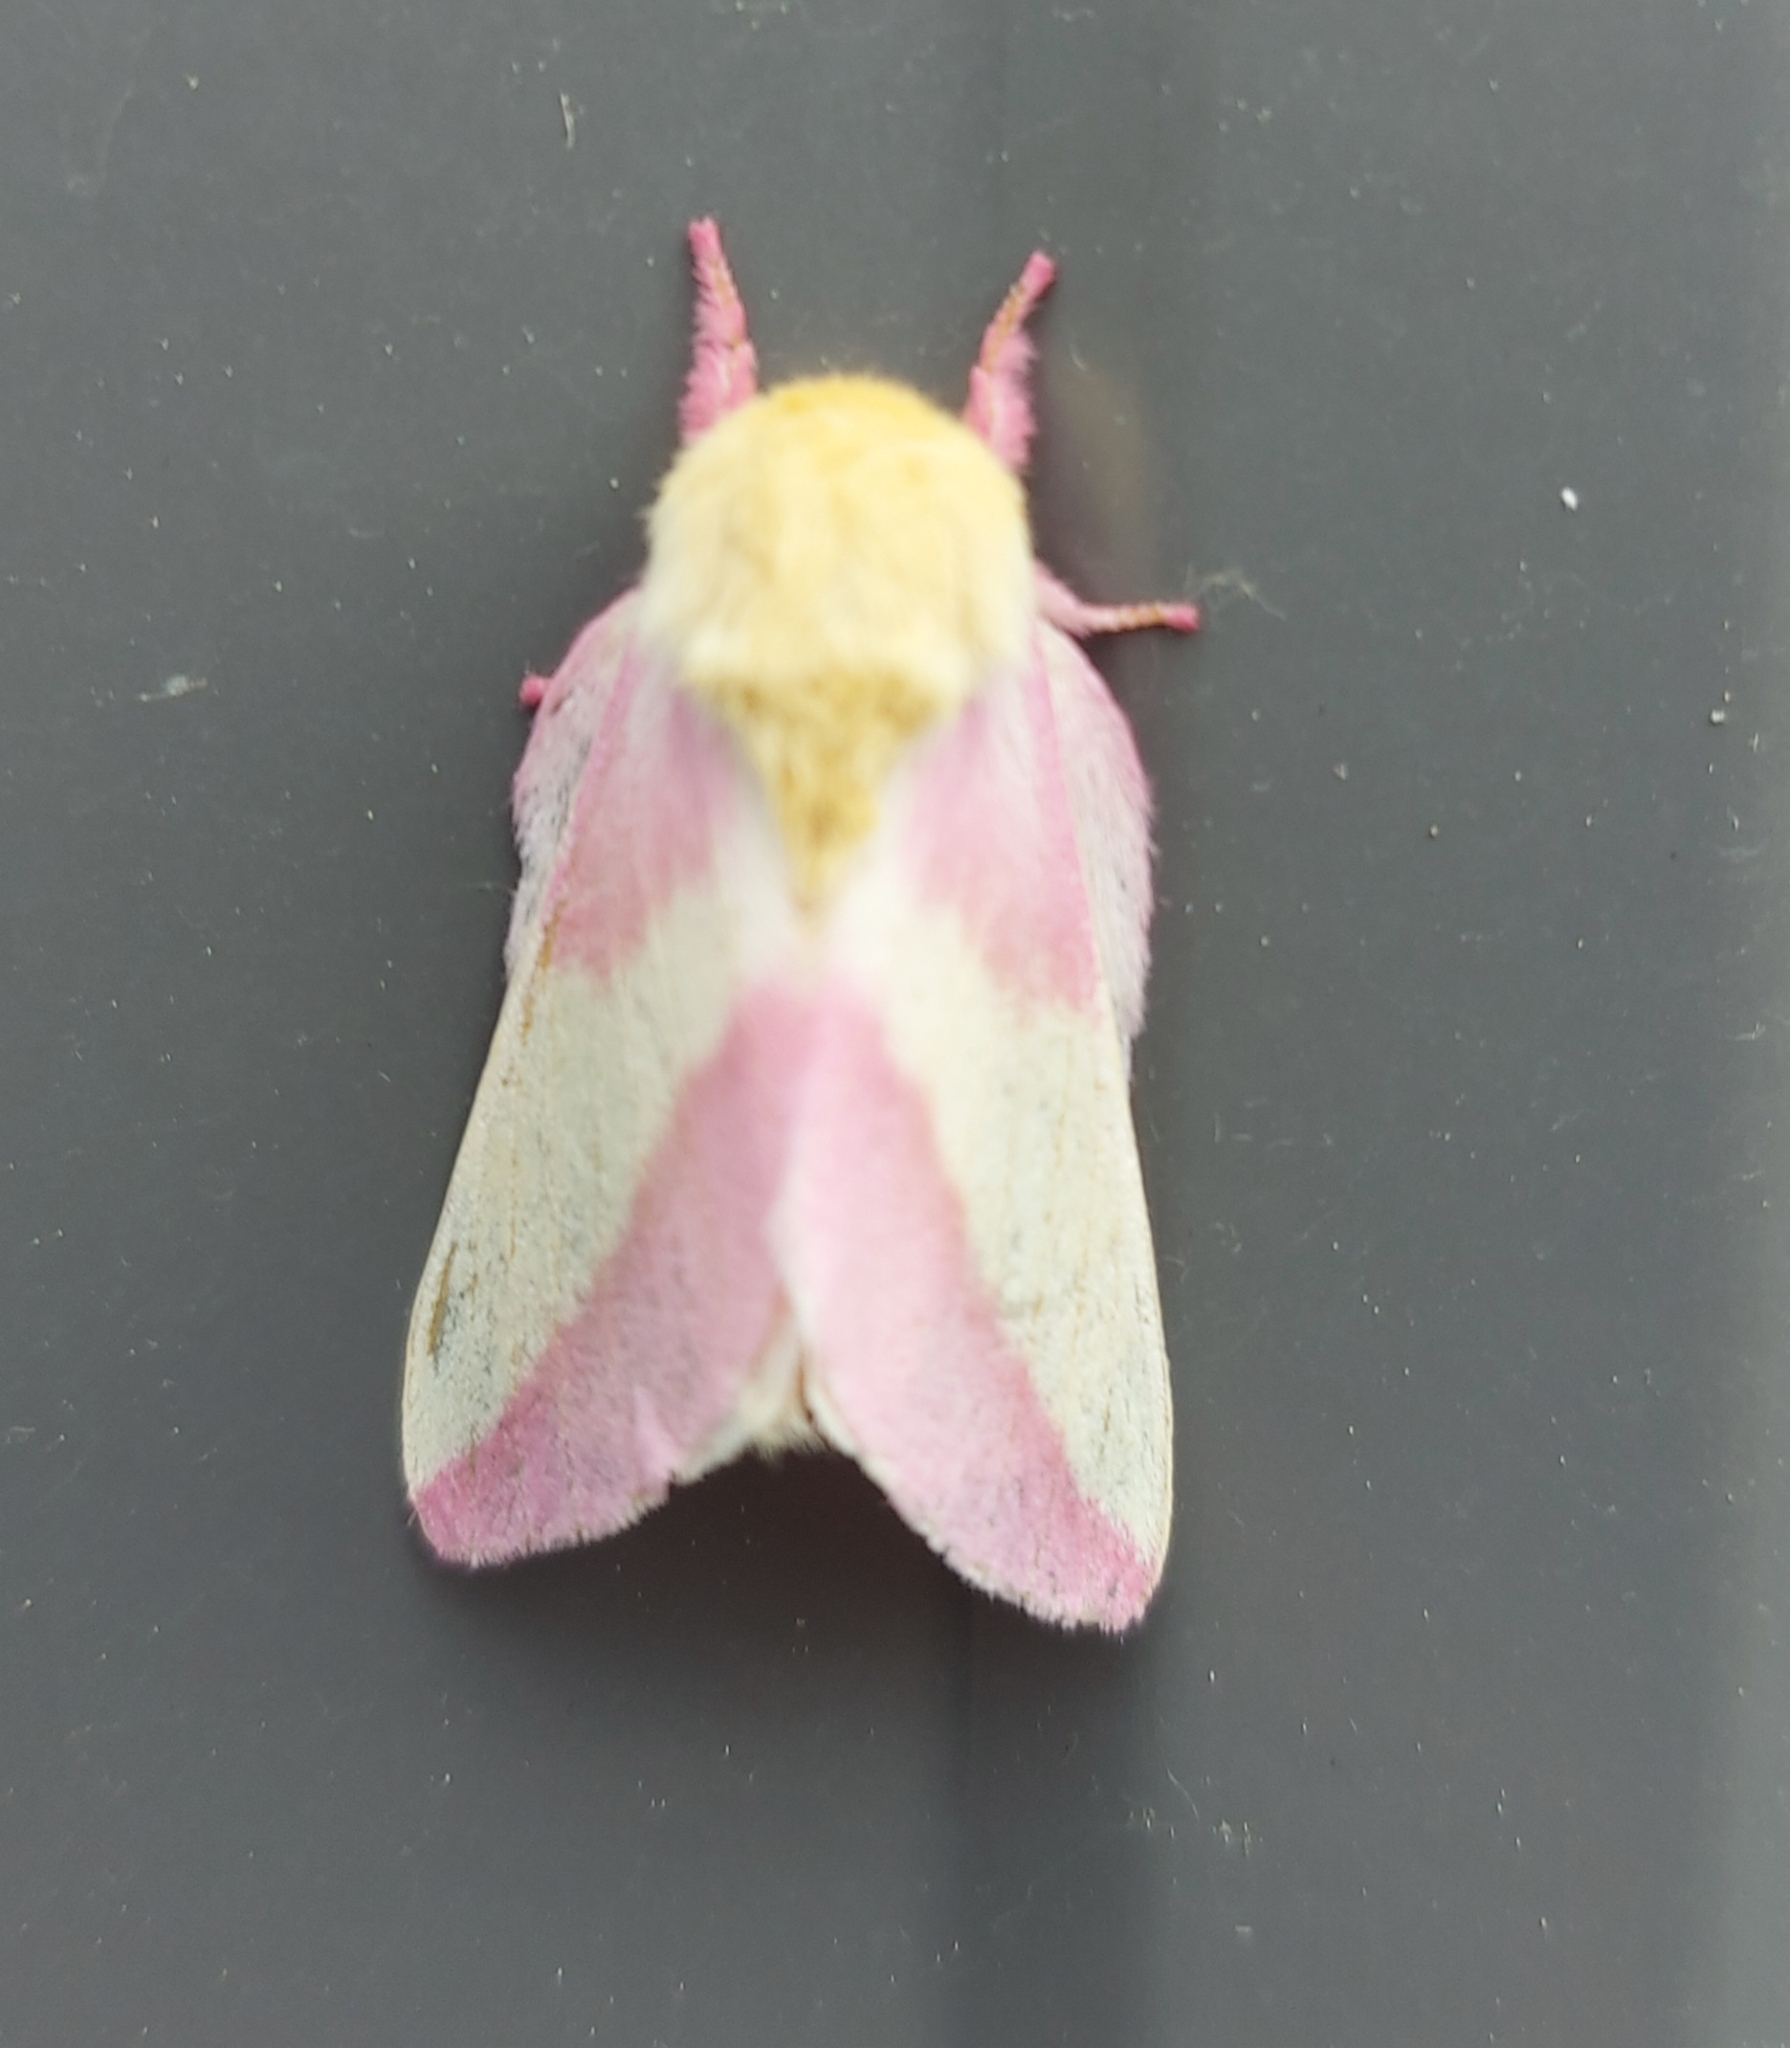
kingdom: Animalia
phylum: Arthropoda
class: Insecta
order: Lepidoptera
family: Saturniidae
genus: Dryocampa
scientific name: Dryocampa rubicunda
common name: Rosy maple moth
